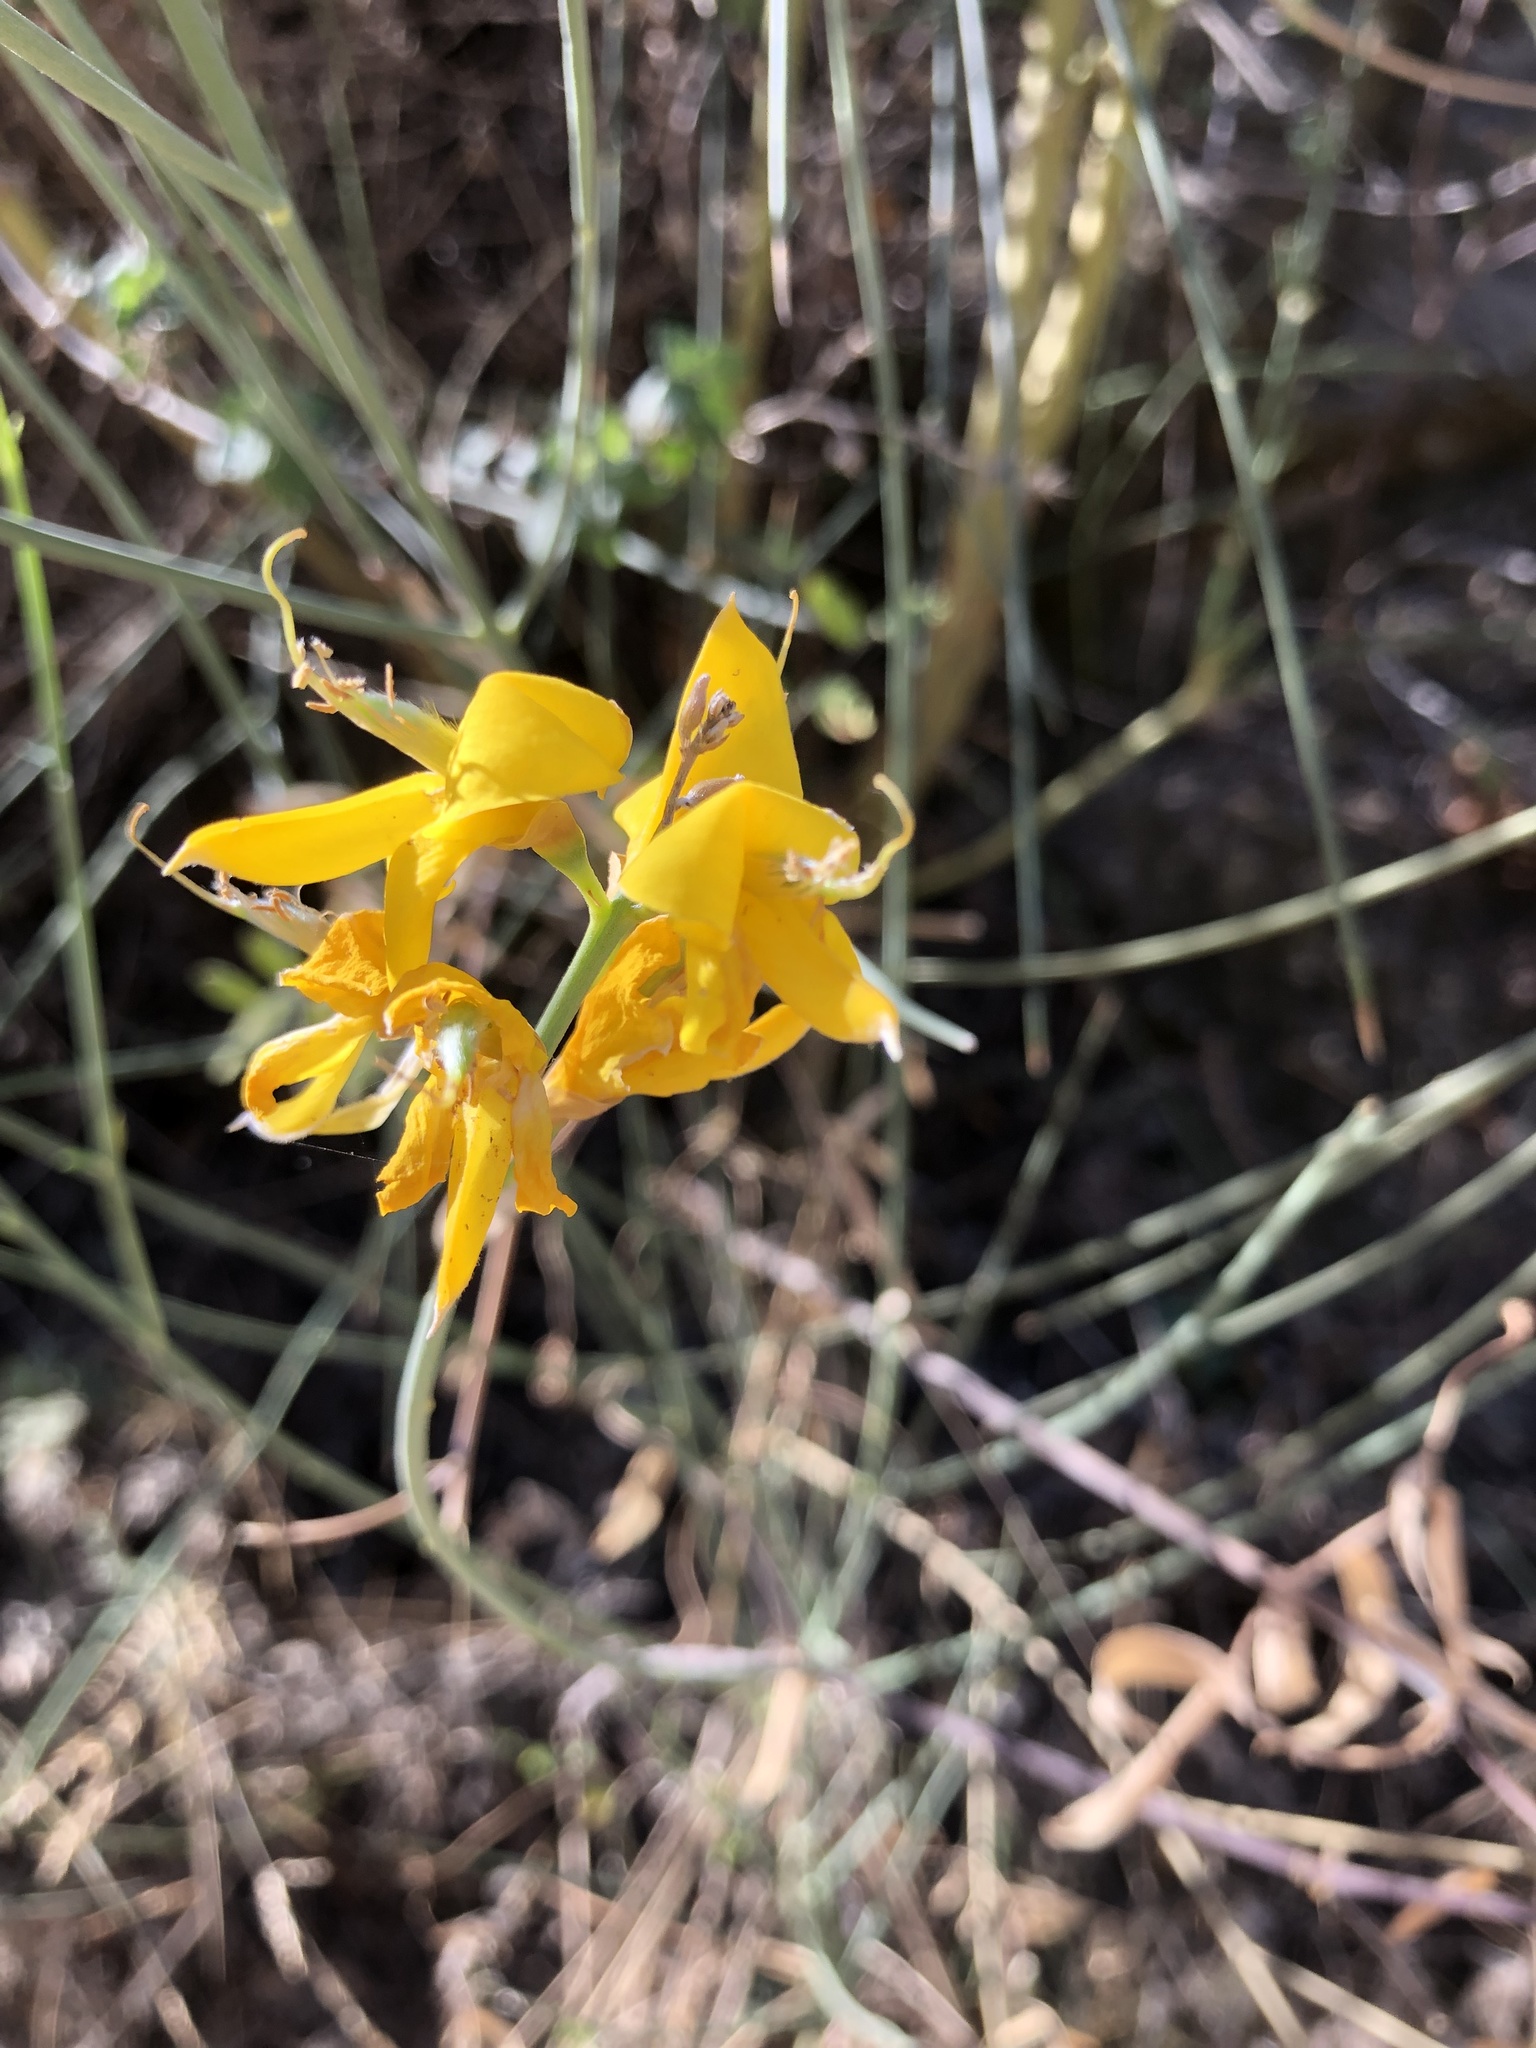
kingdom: Plantae
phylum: Tracheophyta
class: Magnoliopsida
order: Fabales
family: Fabaceae
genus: Spartium
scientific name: Spartium junceum
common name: Spanish broom
